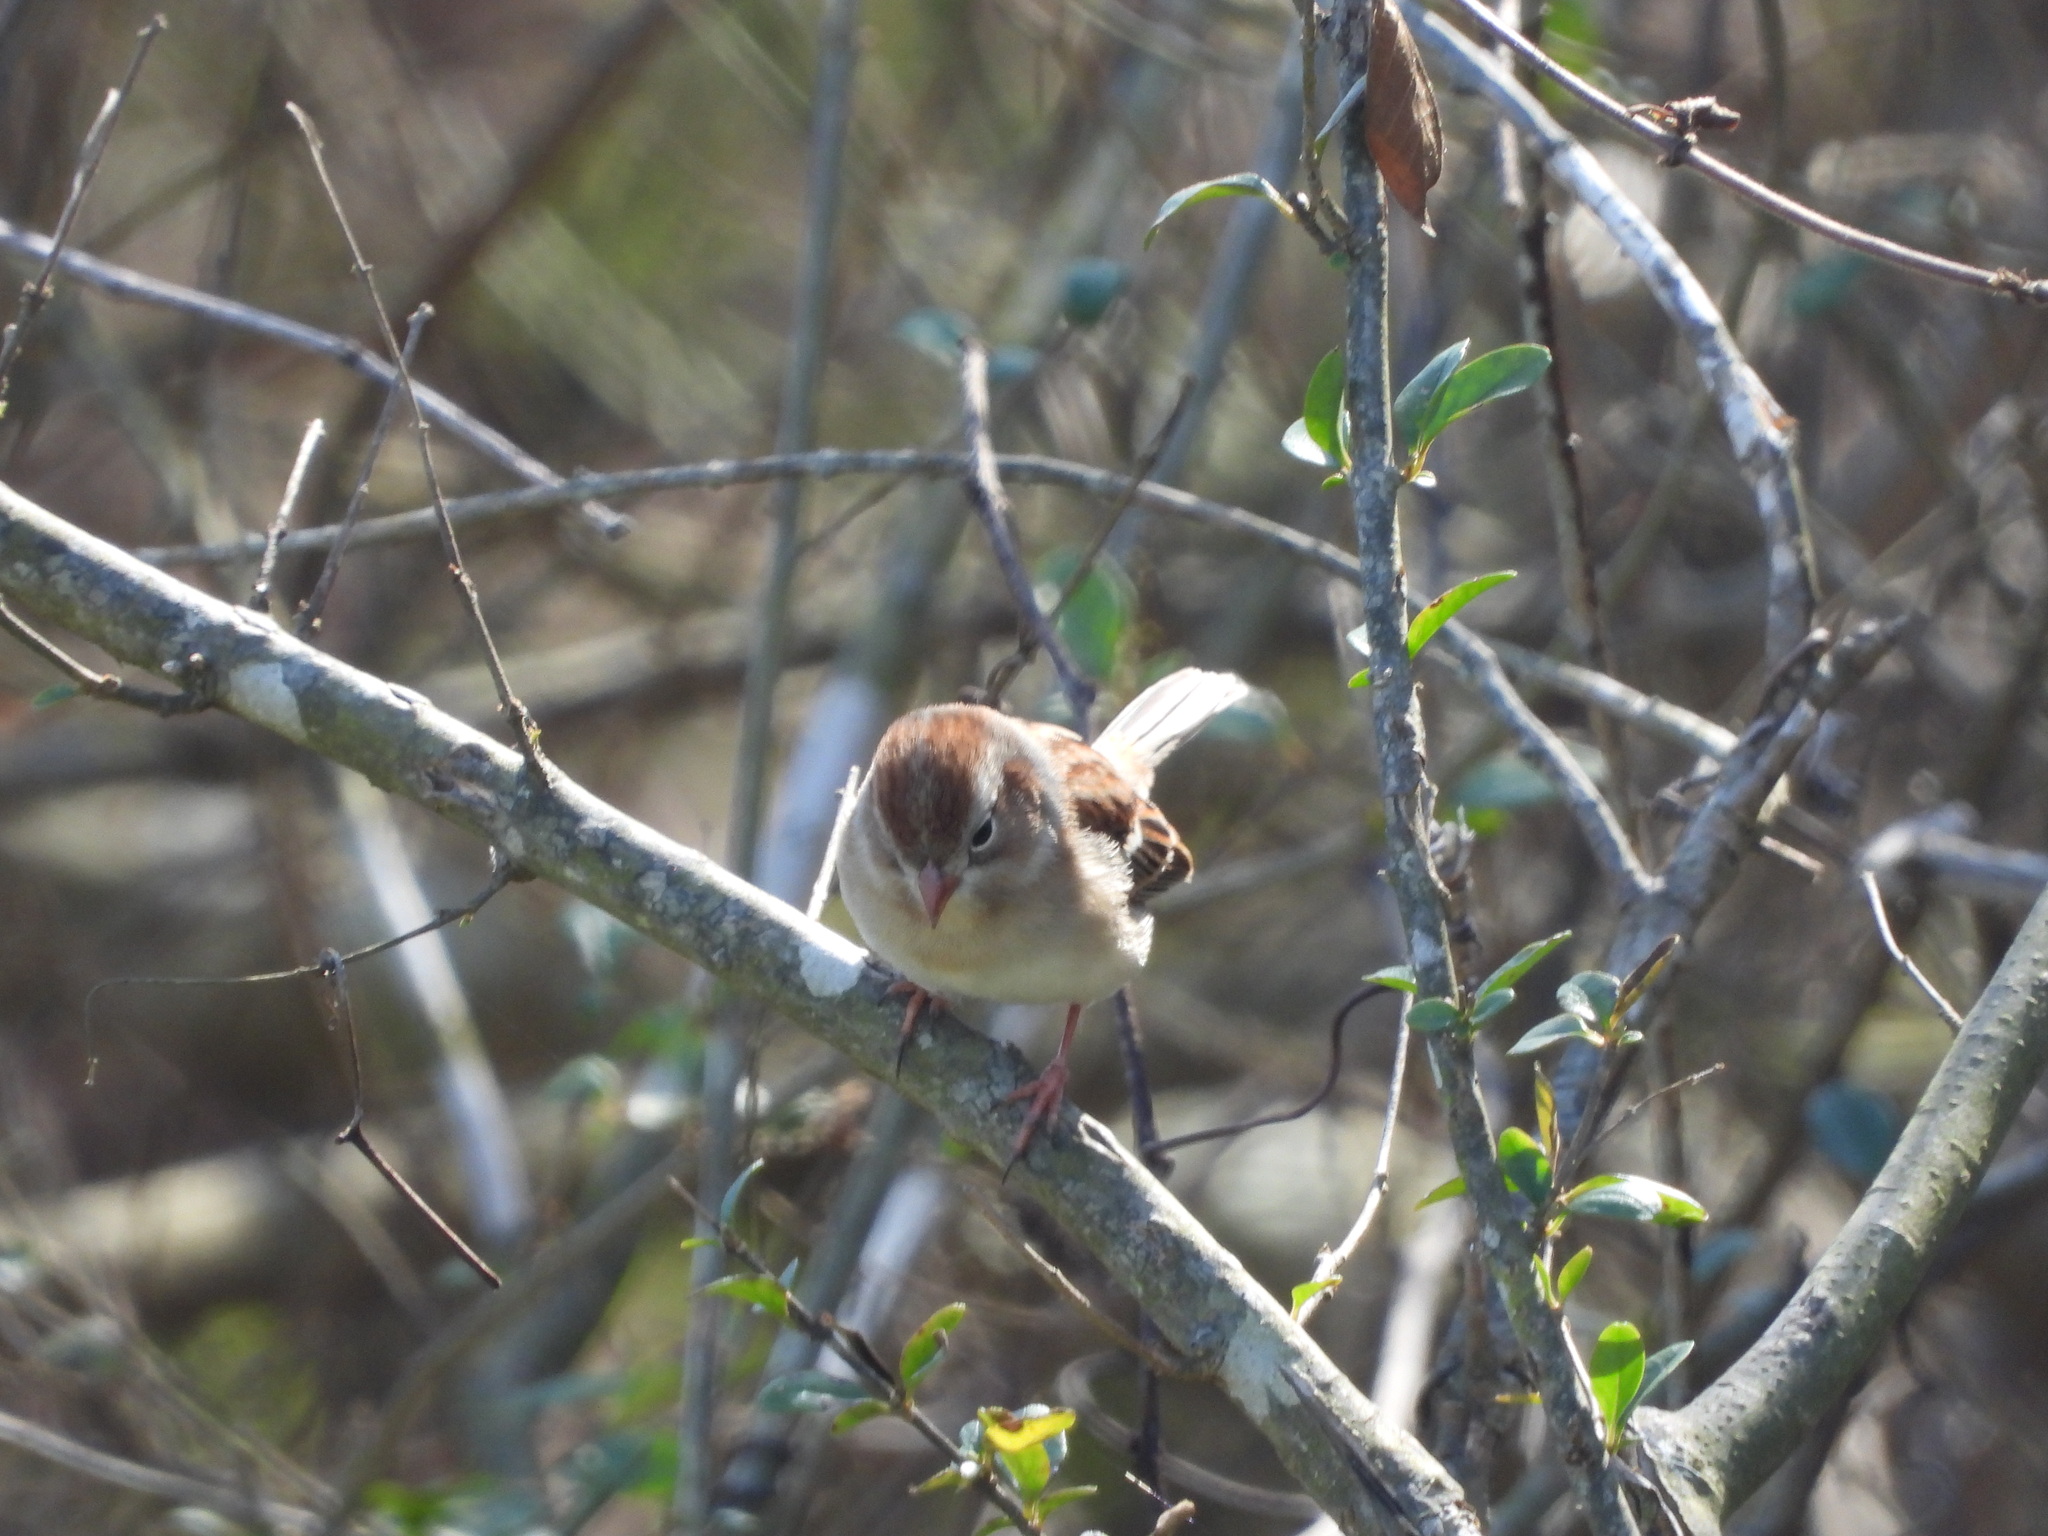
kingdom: Animalia
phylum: Chordata
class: Aves
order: Passeriformes
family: Passerellidae
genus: Spizella
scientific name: Spizella pusilla
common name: Field sparrow
